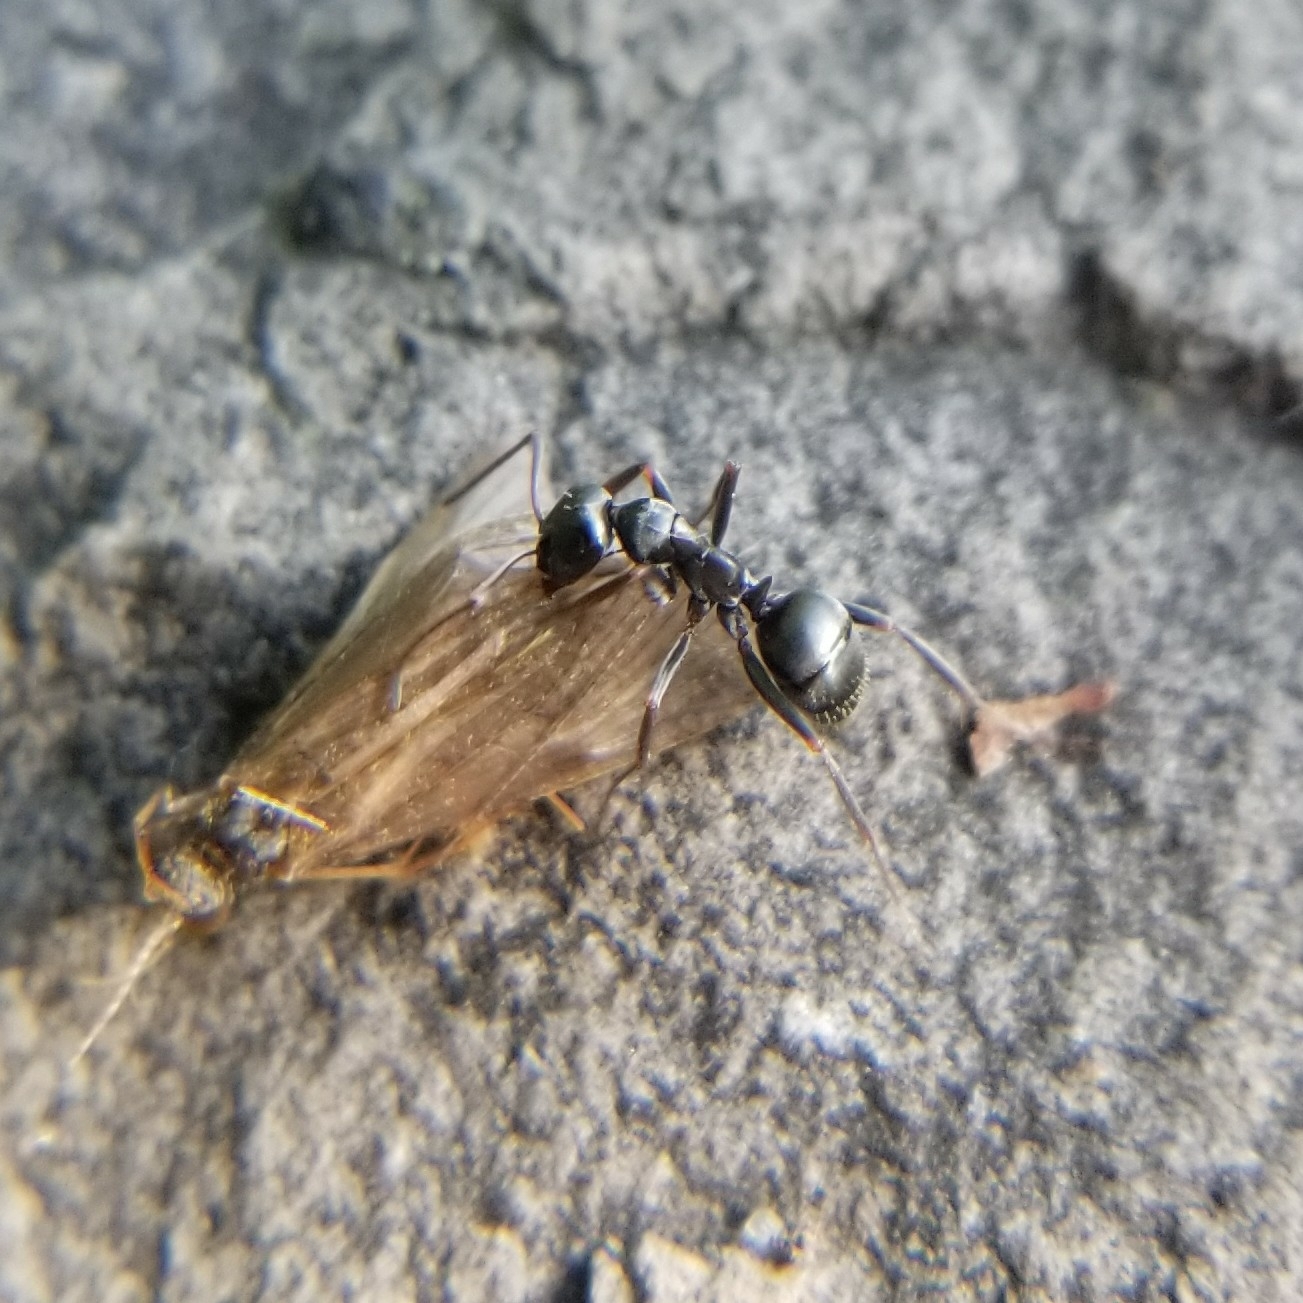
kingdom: Animalia
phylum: Arthropoda
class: Insecta
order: Hymenoptera
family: Formicidae
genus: Formica
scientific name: Formica
